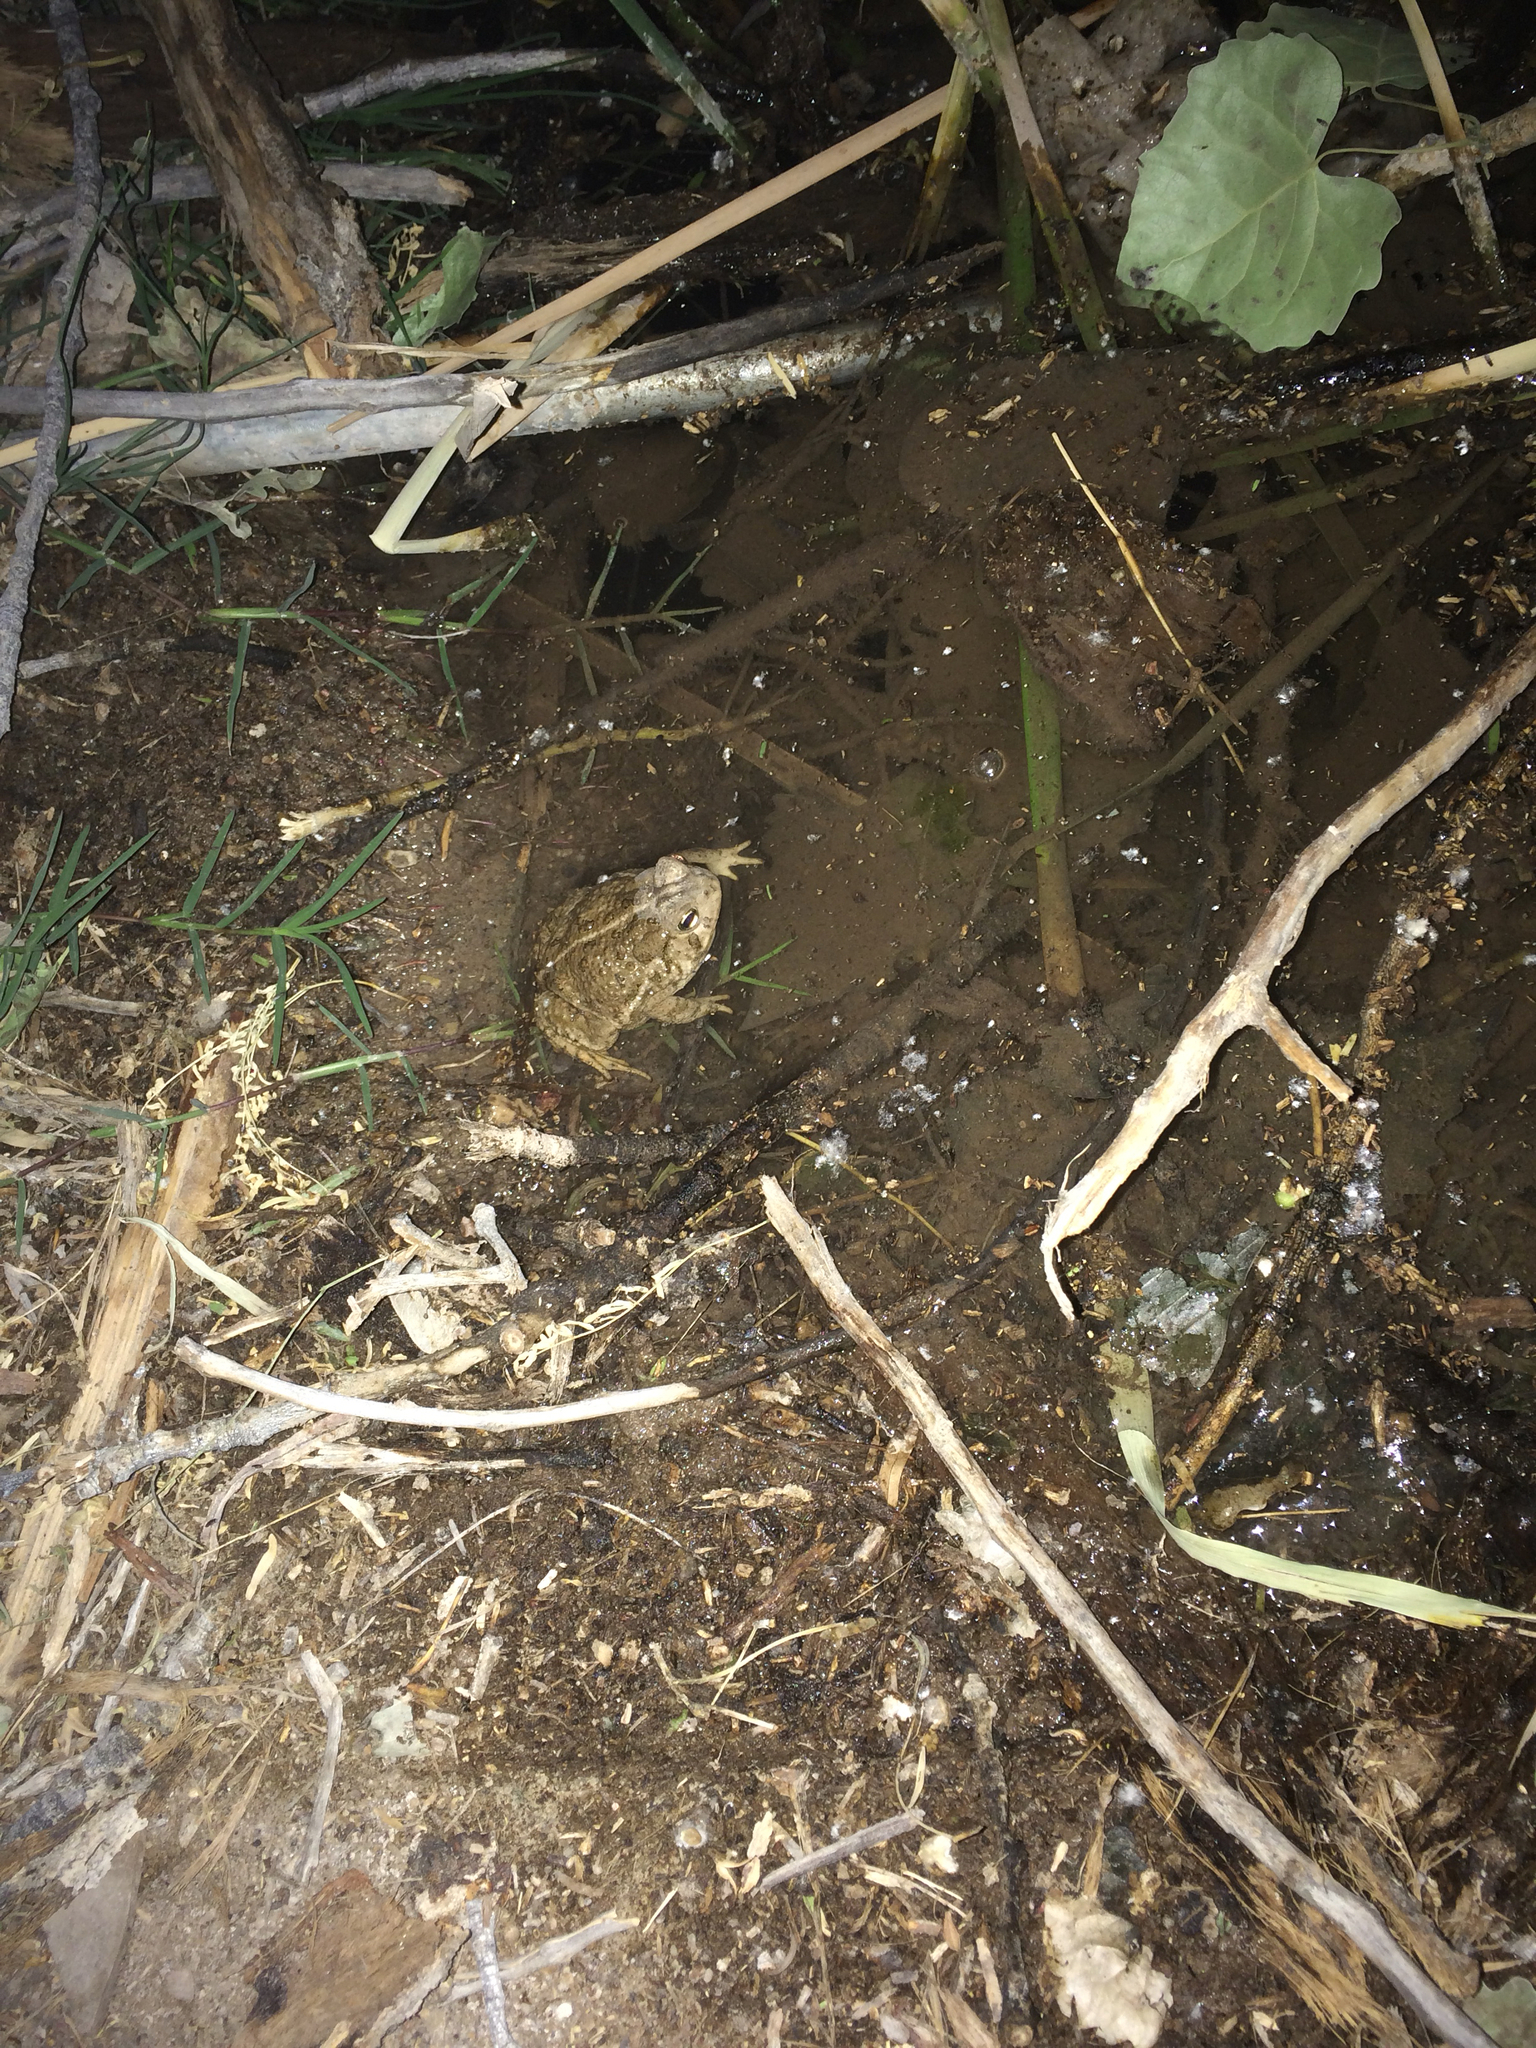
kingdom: Animalia
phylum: Chordata
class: Amphibia
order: Anura
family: Bufonidae
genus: Anaxyrus
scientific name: Anaxyrus woodhousii
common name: Woodhouse's toad
